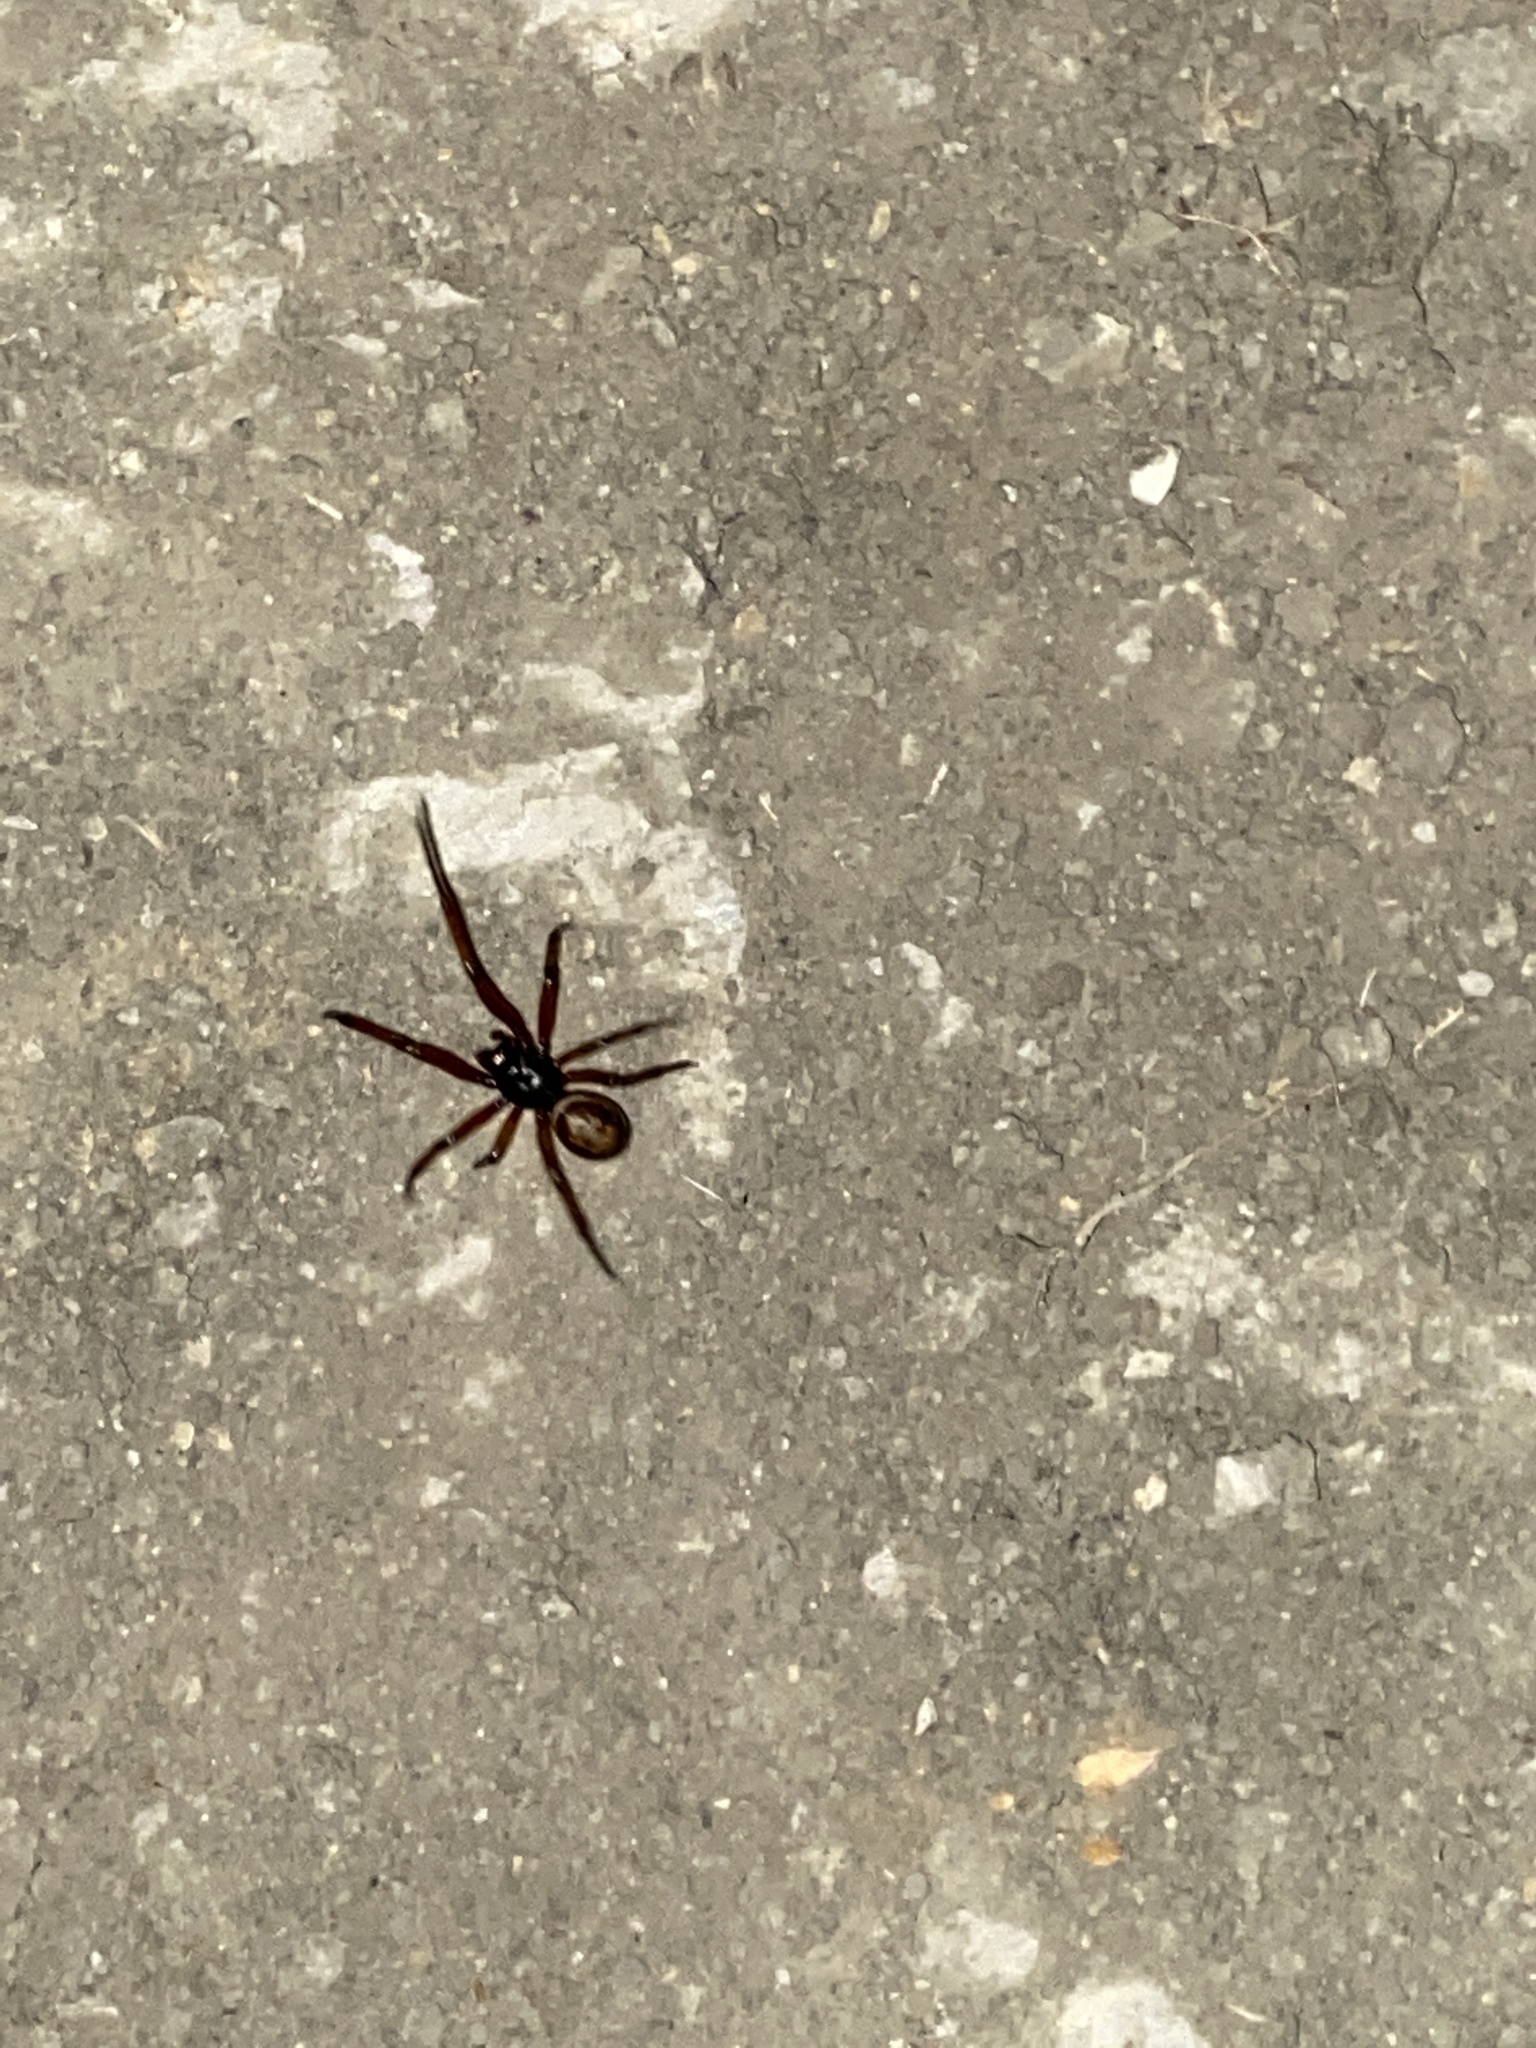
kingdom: Animalia
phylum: Arthropoda
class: Arachnida
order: Araneae
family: Theridiidae
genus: Steatoda
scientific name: Steatoda nobilis
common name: Cobweb weaver
